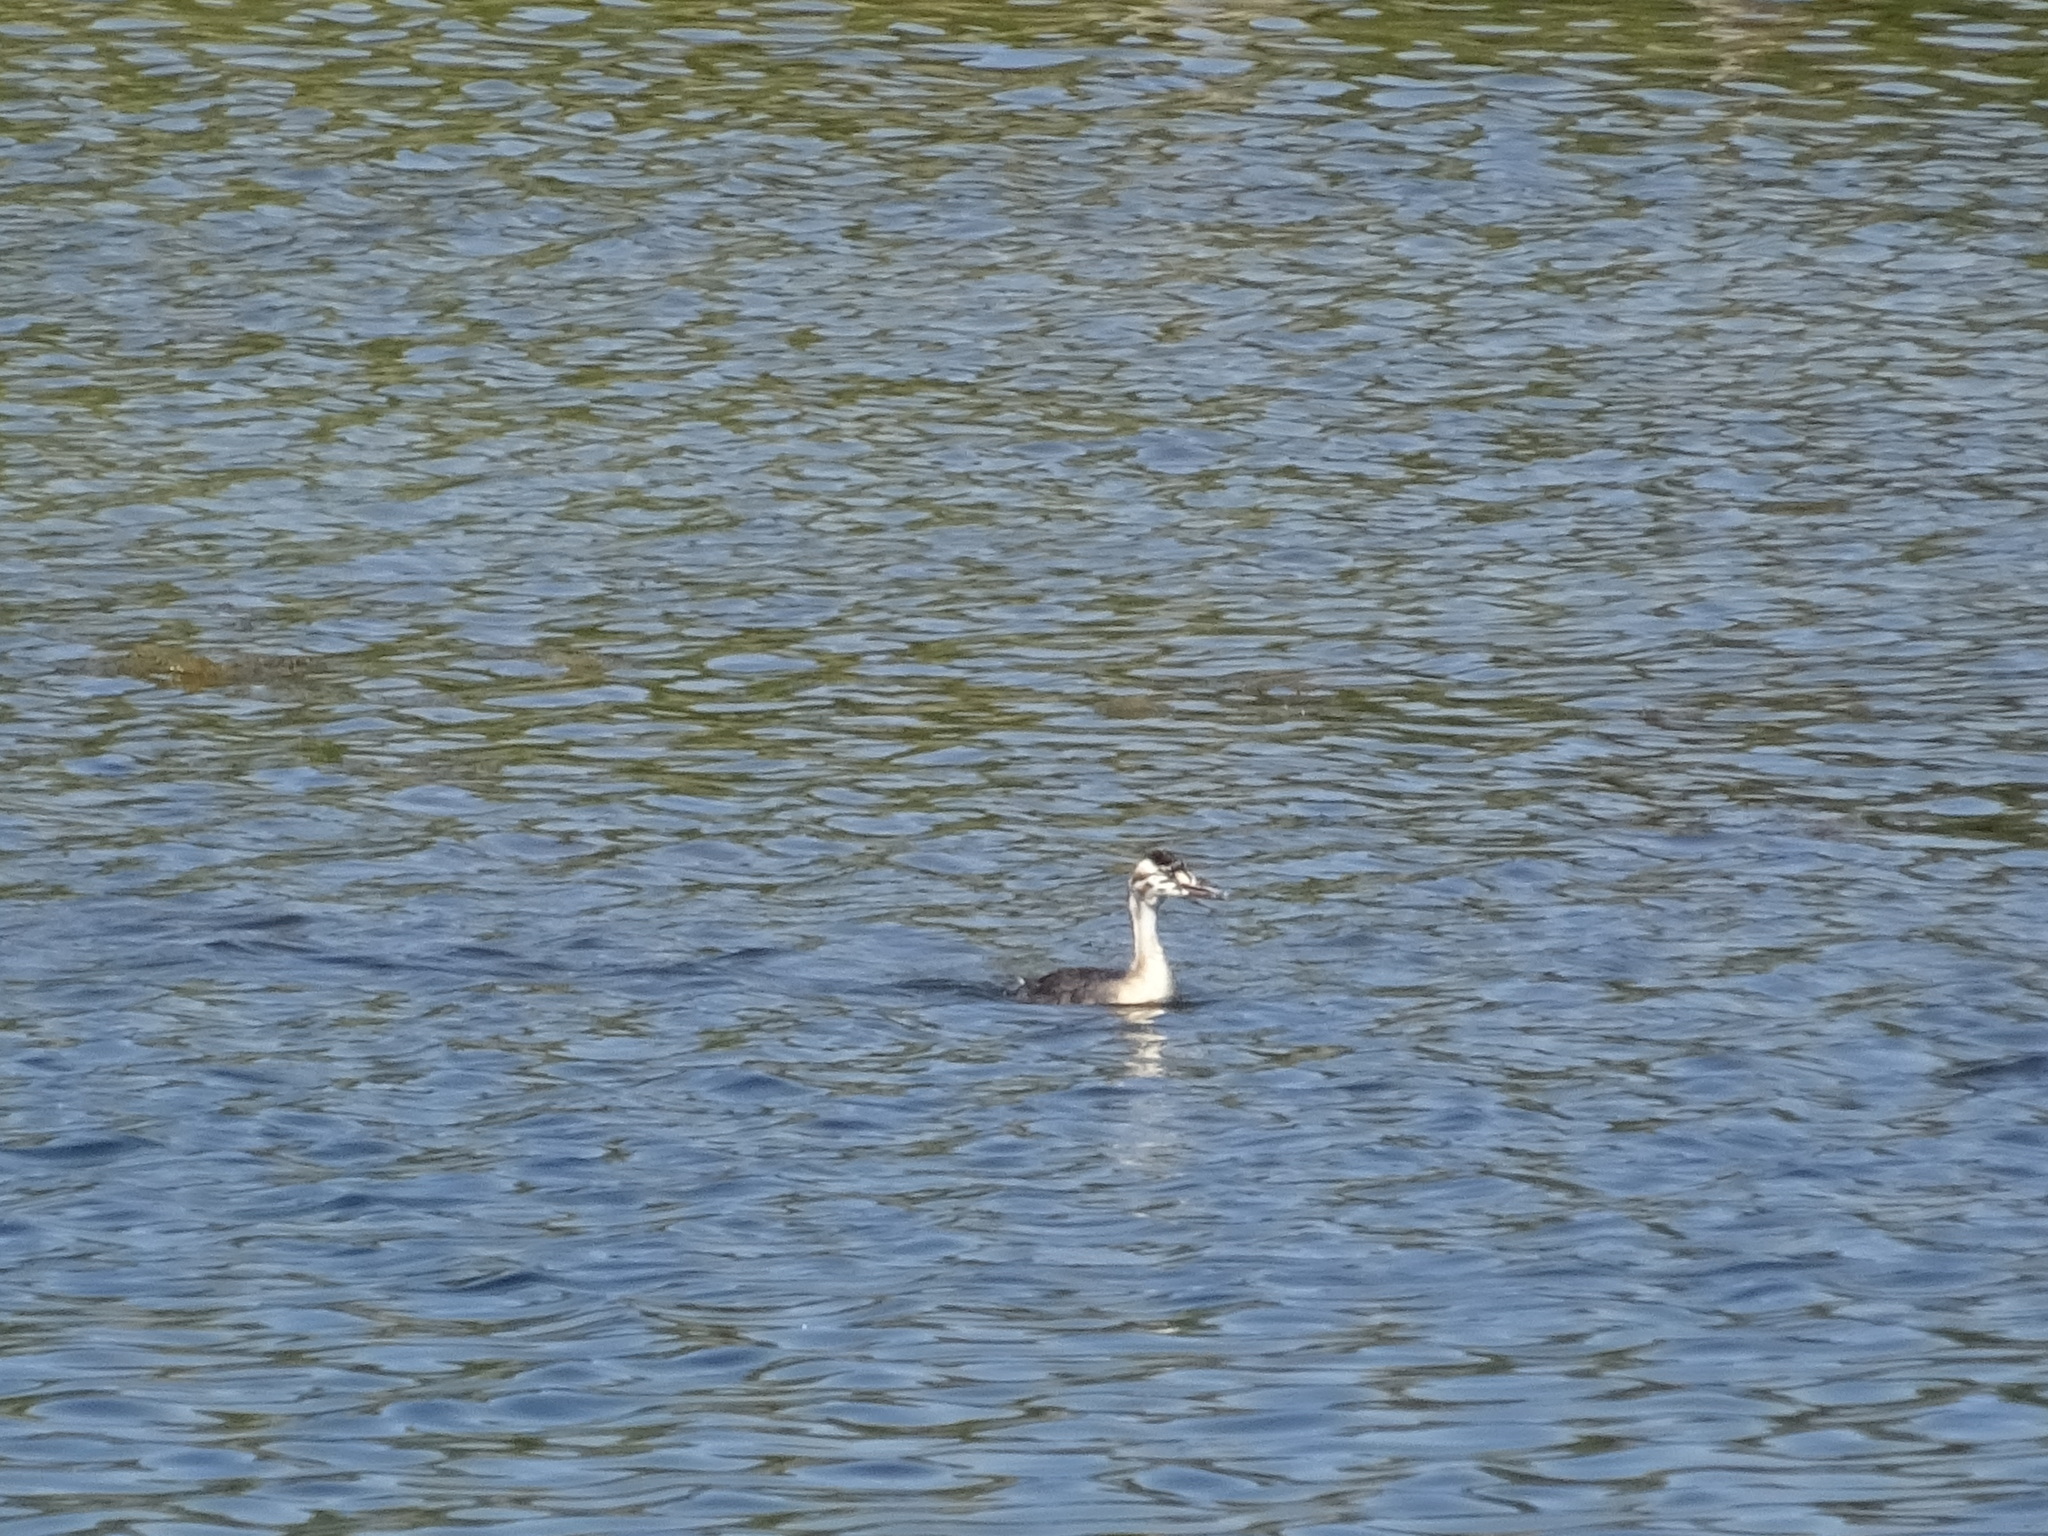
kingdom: Animalia
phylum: Chordata
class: Aves
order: Podicipediformes
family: Podicipedidae
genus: Podiceps
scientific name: Podiceps cristatus
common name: Great crested grebe
